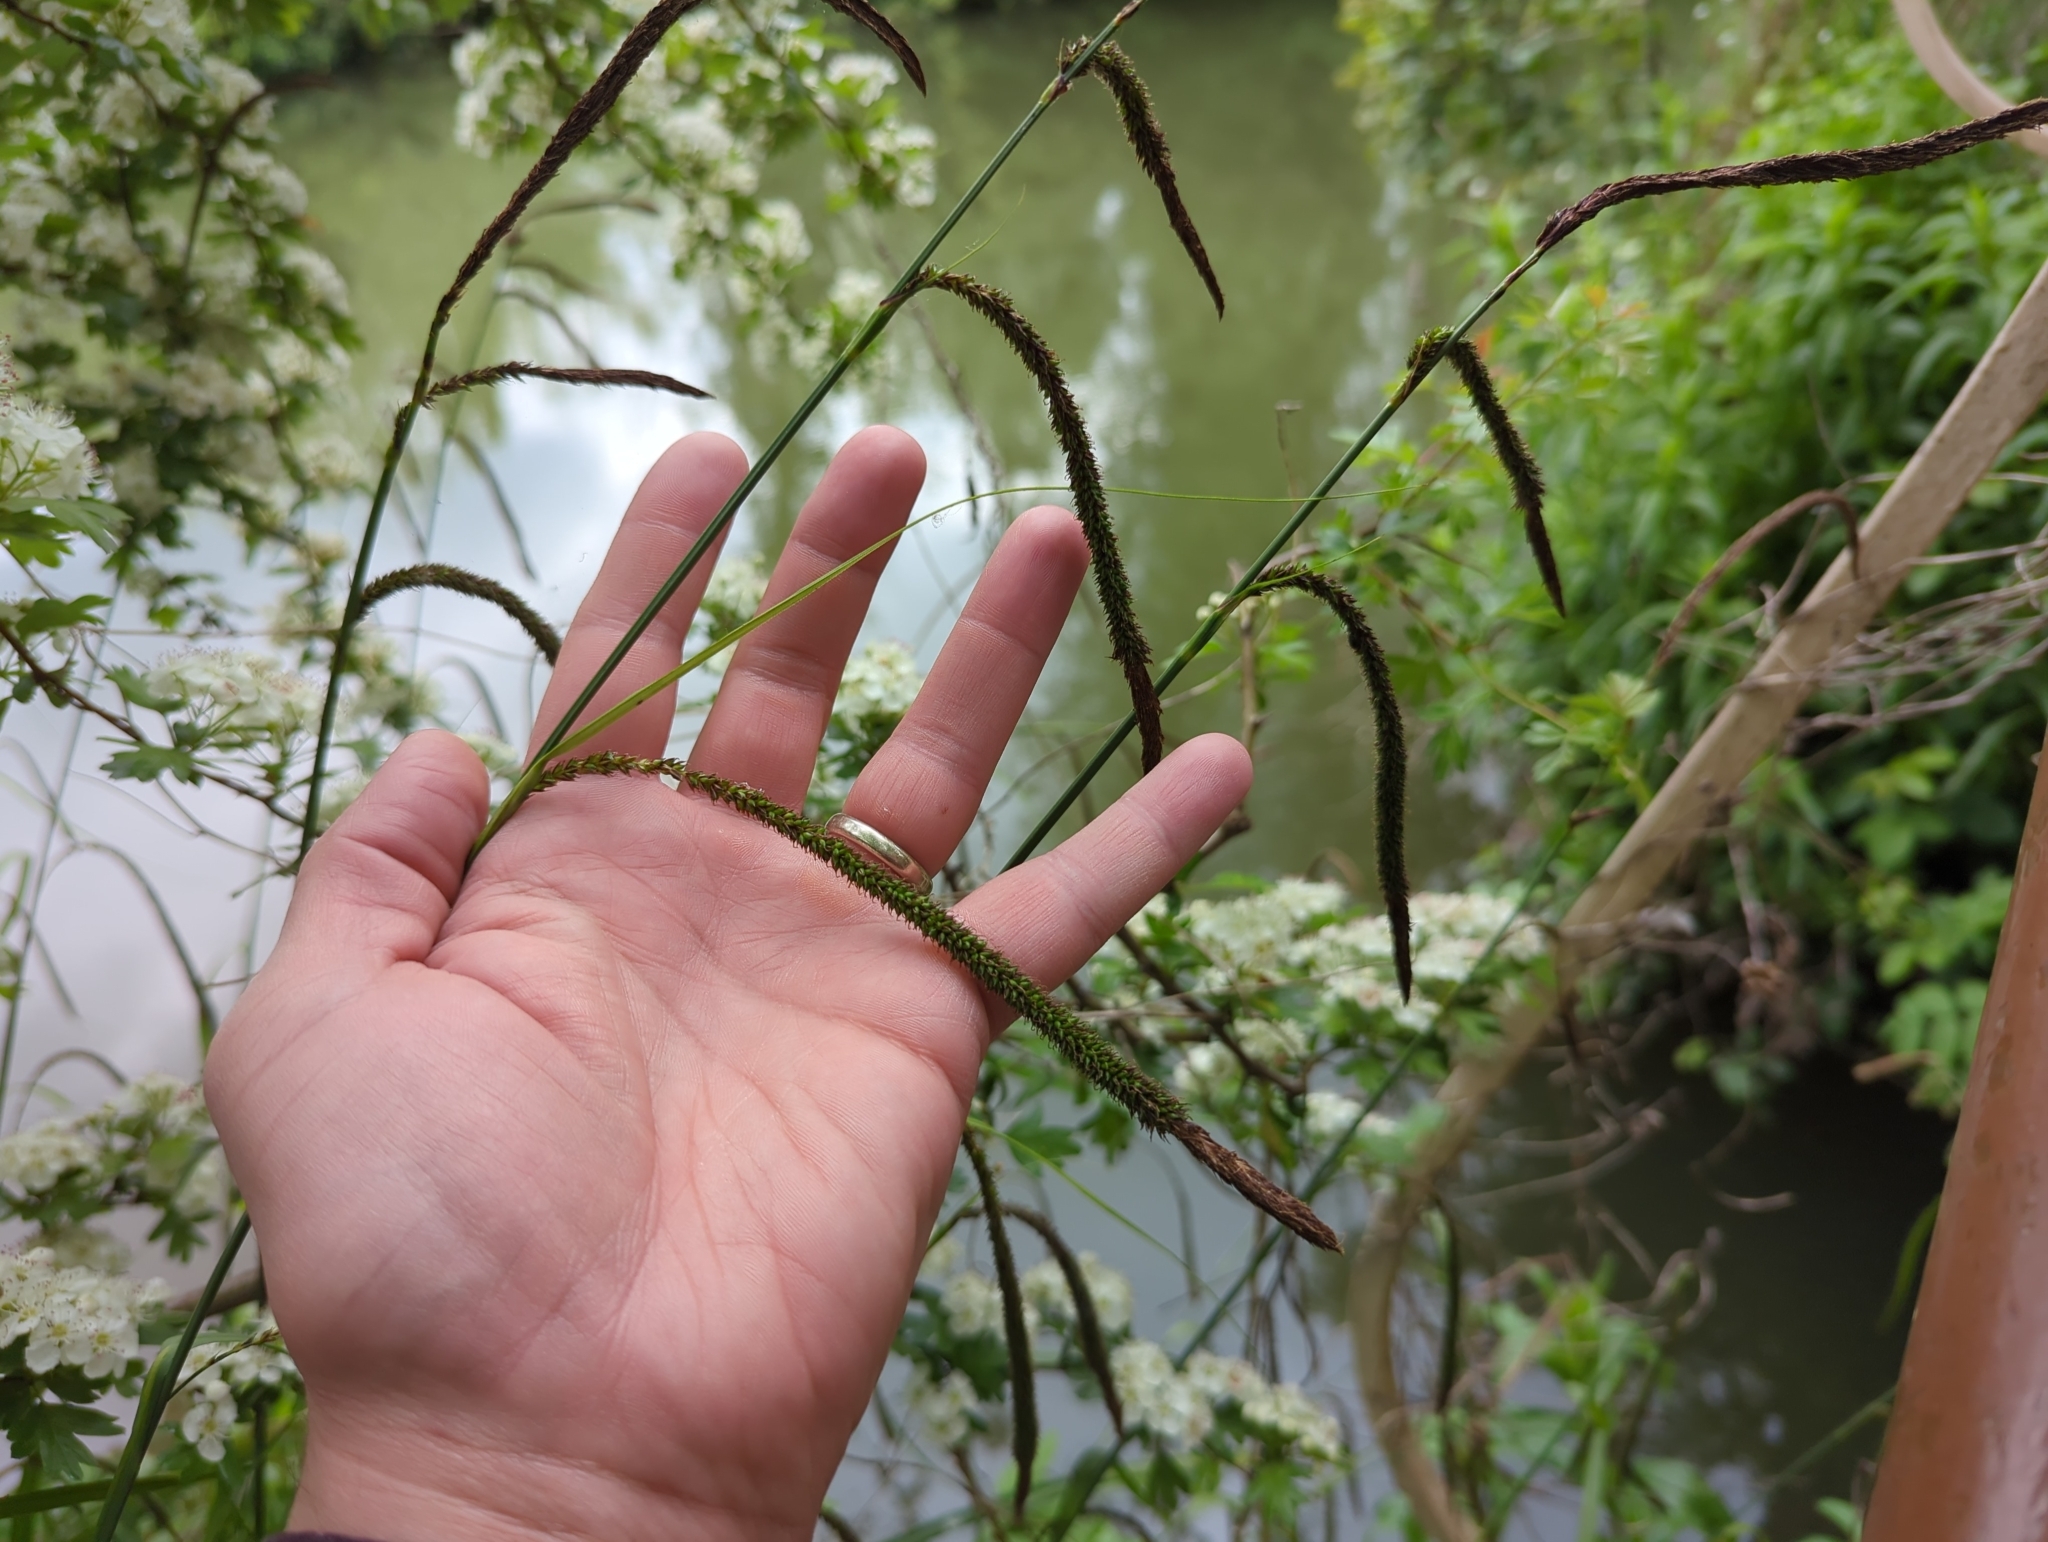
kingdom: Plantae
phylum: Tracheophyta
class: Liliopsida
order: Poales
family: Cyperaceae
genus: Carex
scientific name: Carex pendula
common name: Pendulous sedge
